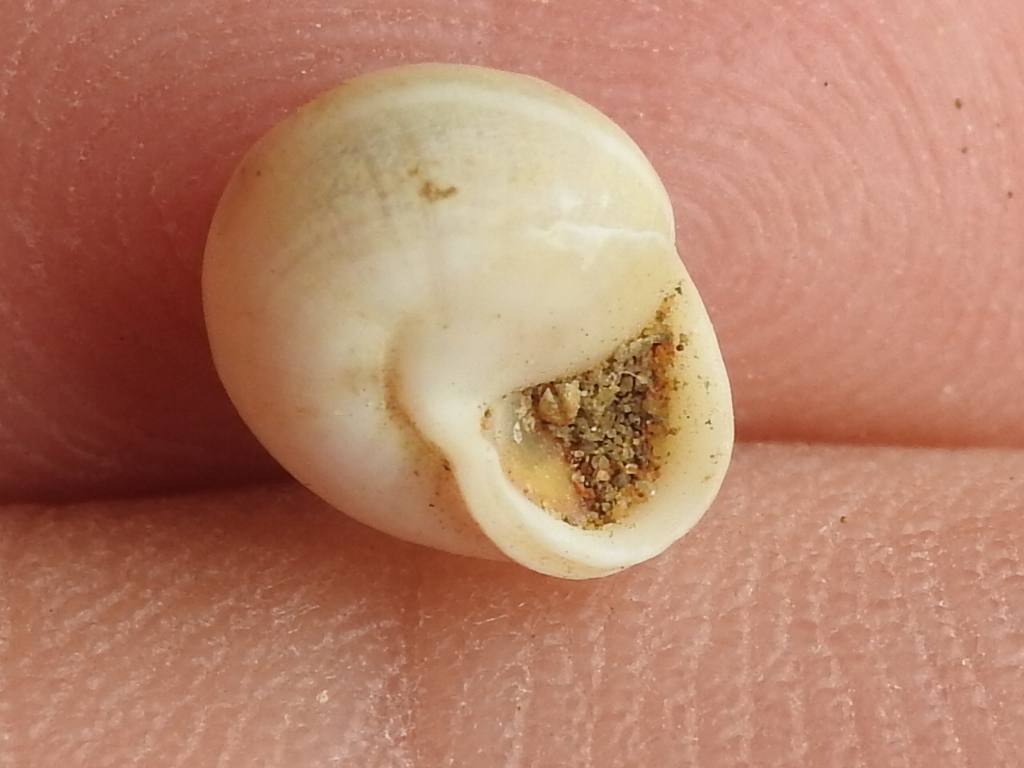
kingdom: Animalia
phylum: Mollusca
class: Gastropoda
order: Cycloneritida
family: Helicinidae
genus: Helicina
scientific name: Helicina orbiculata
